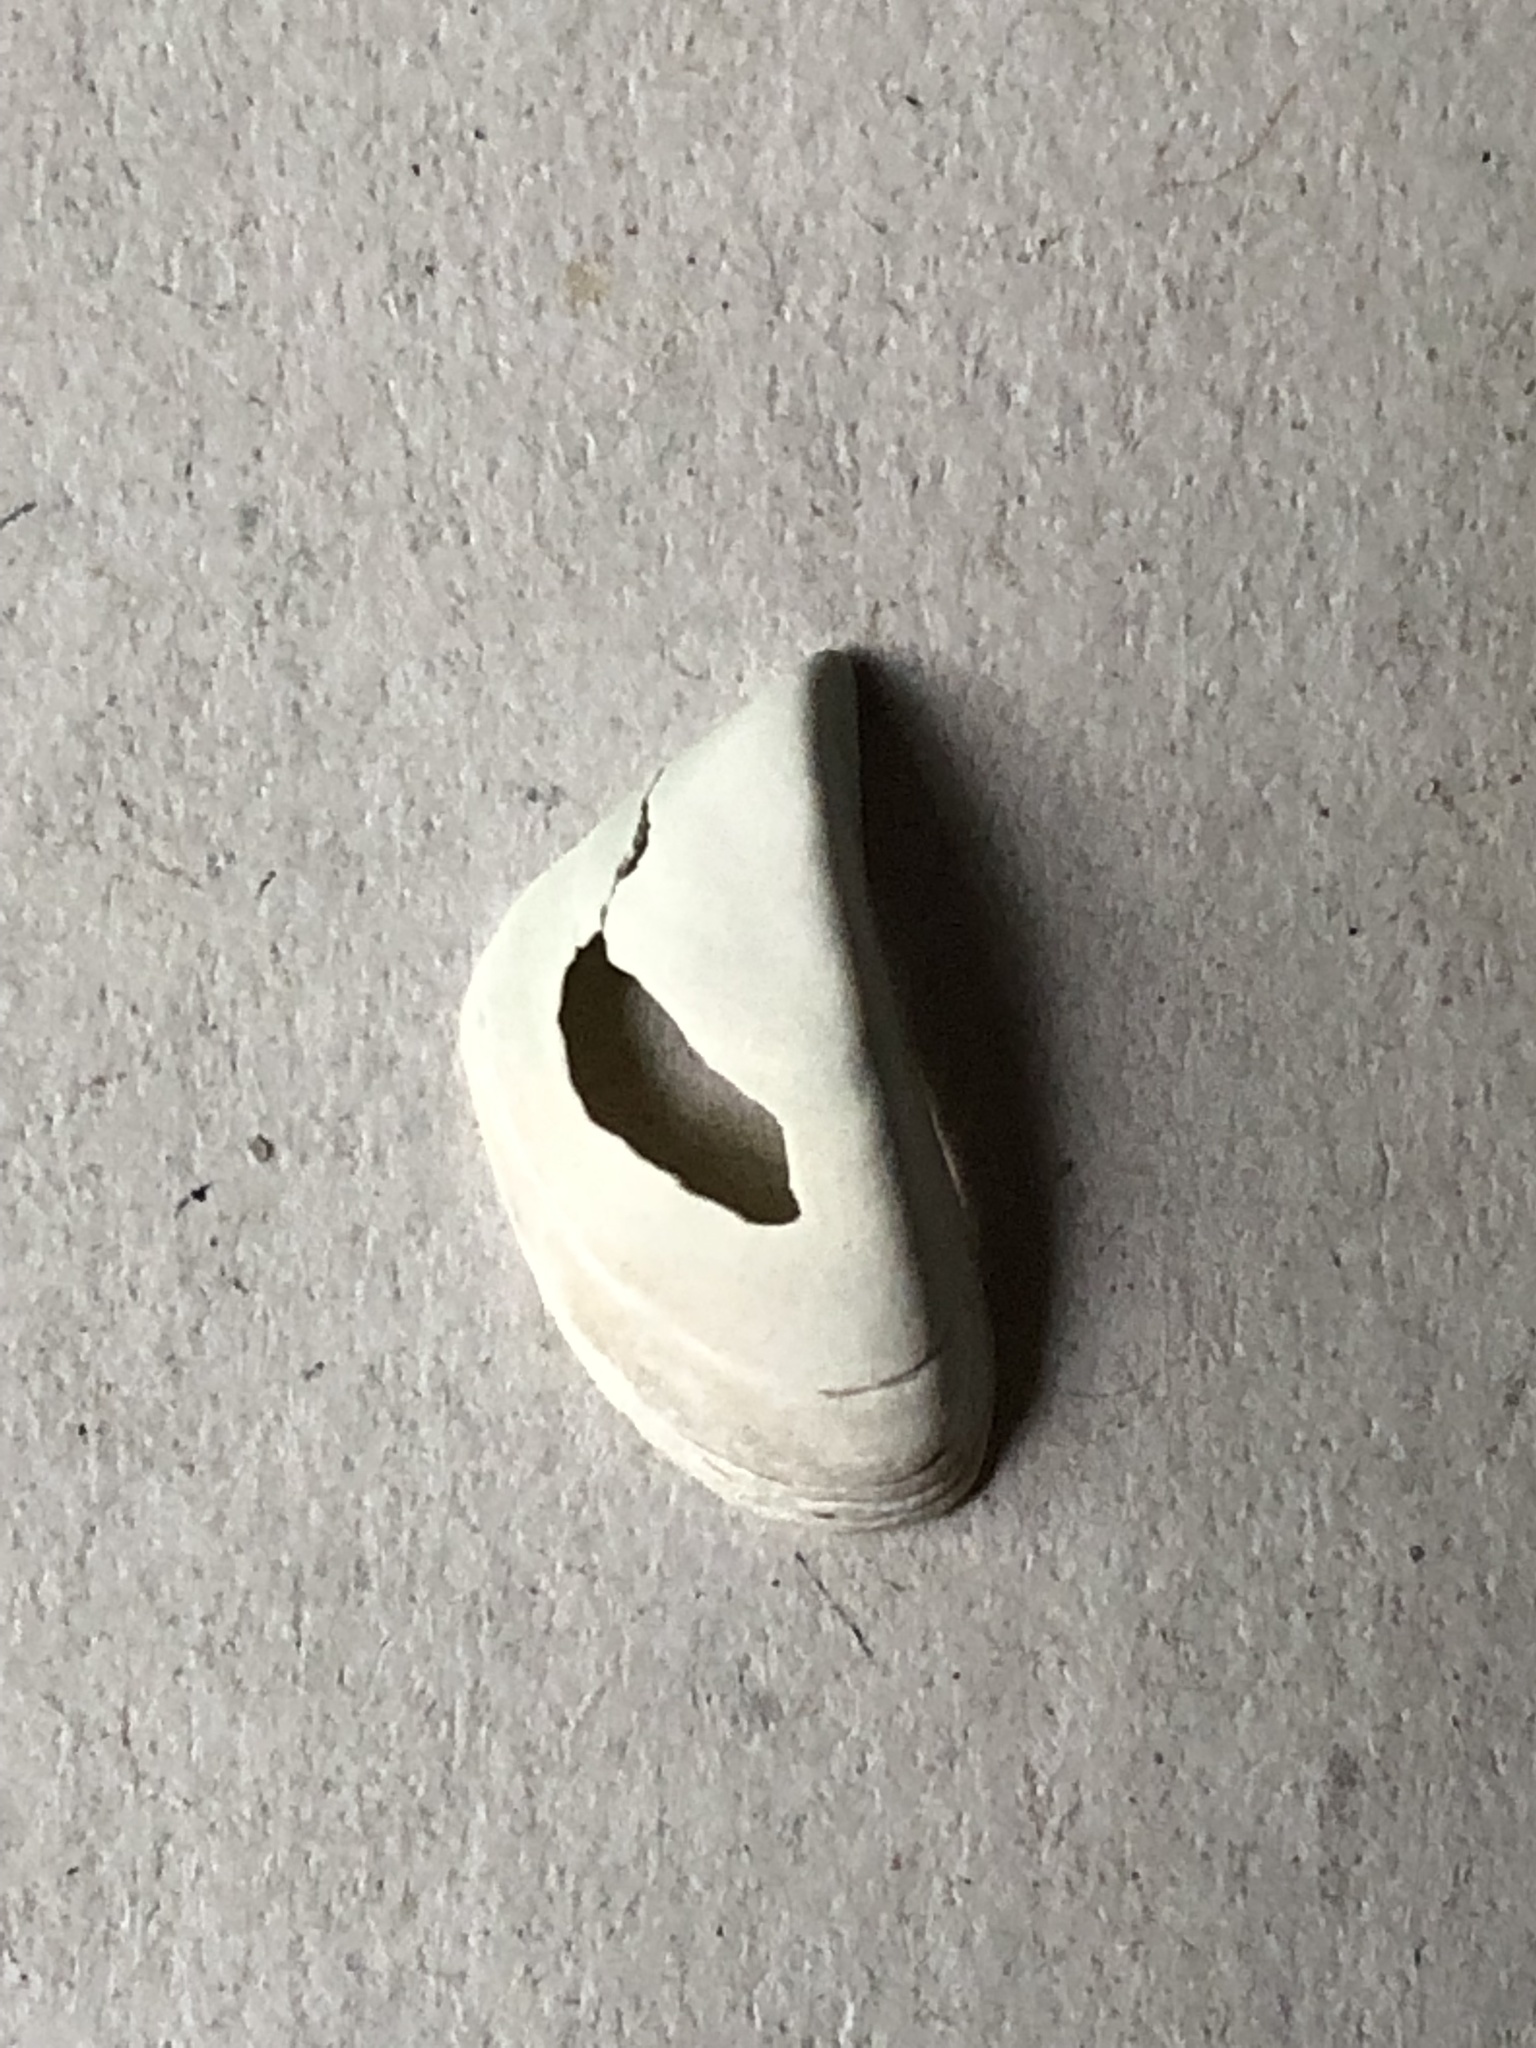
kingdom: Animalia
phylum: Mollusca
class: Bivalvia
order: Myida
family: Dreissenidae
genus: Dreissena
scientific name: Dreissena polymorpha
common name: Zebra mussel
